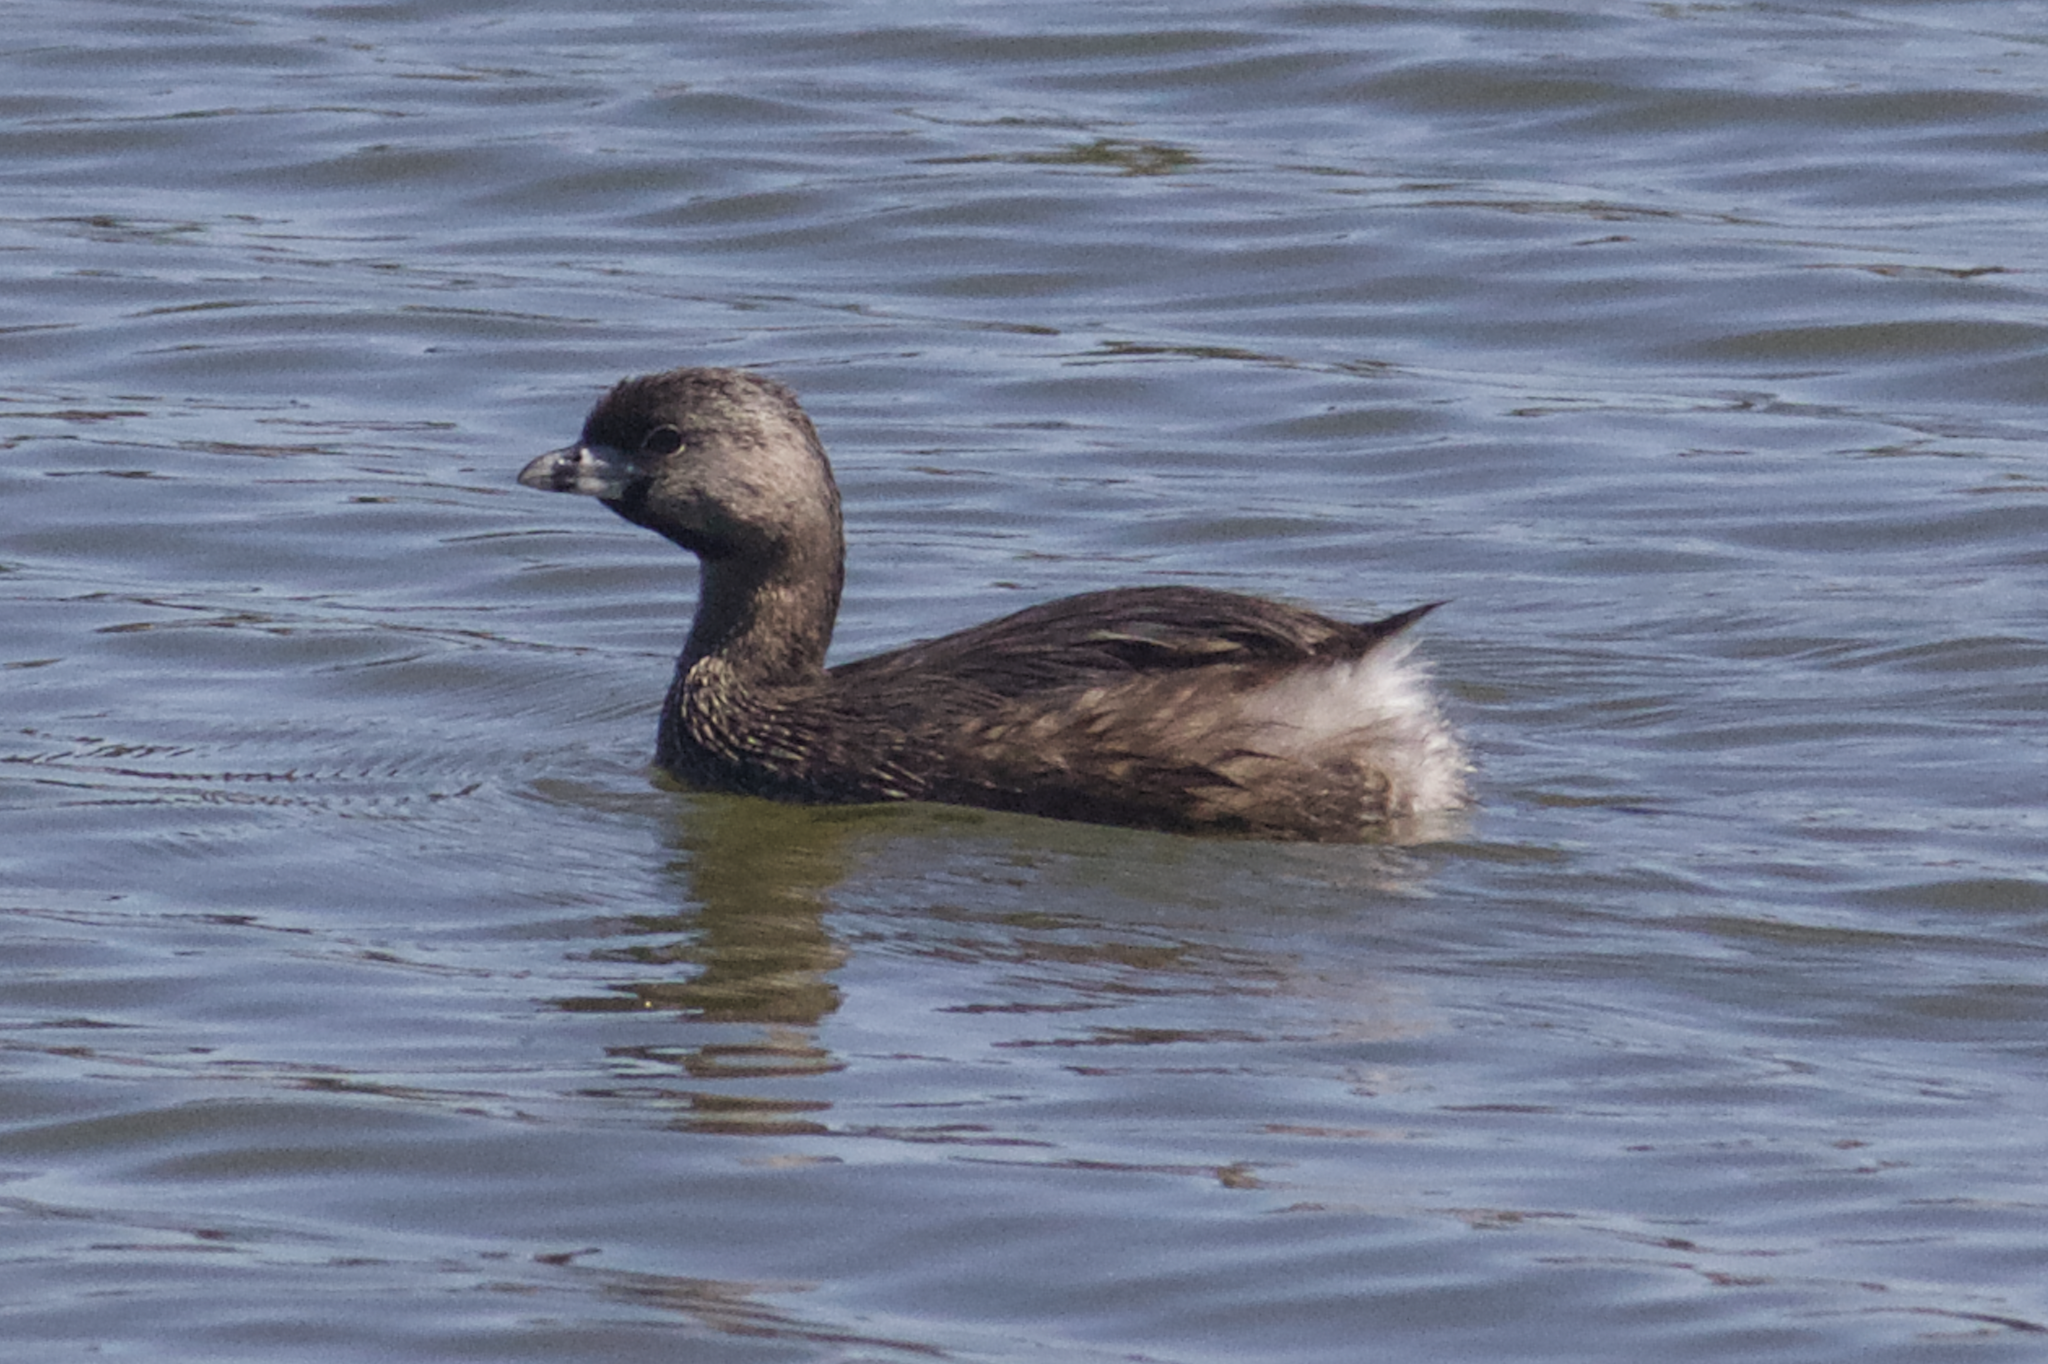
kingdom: Animalia
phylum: Chordata
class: Aves
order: Podicipediformes
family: Podicipedidae
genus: Podilymbus
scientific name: Podilymbus podiceps
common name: Pied-billed grebe
